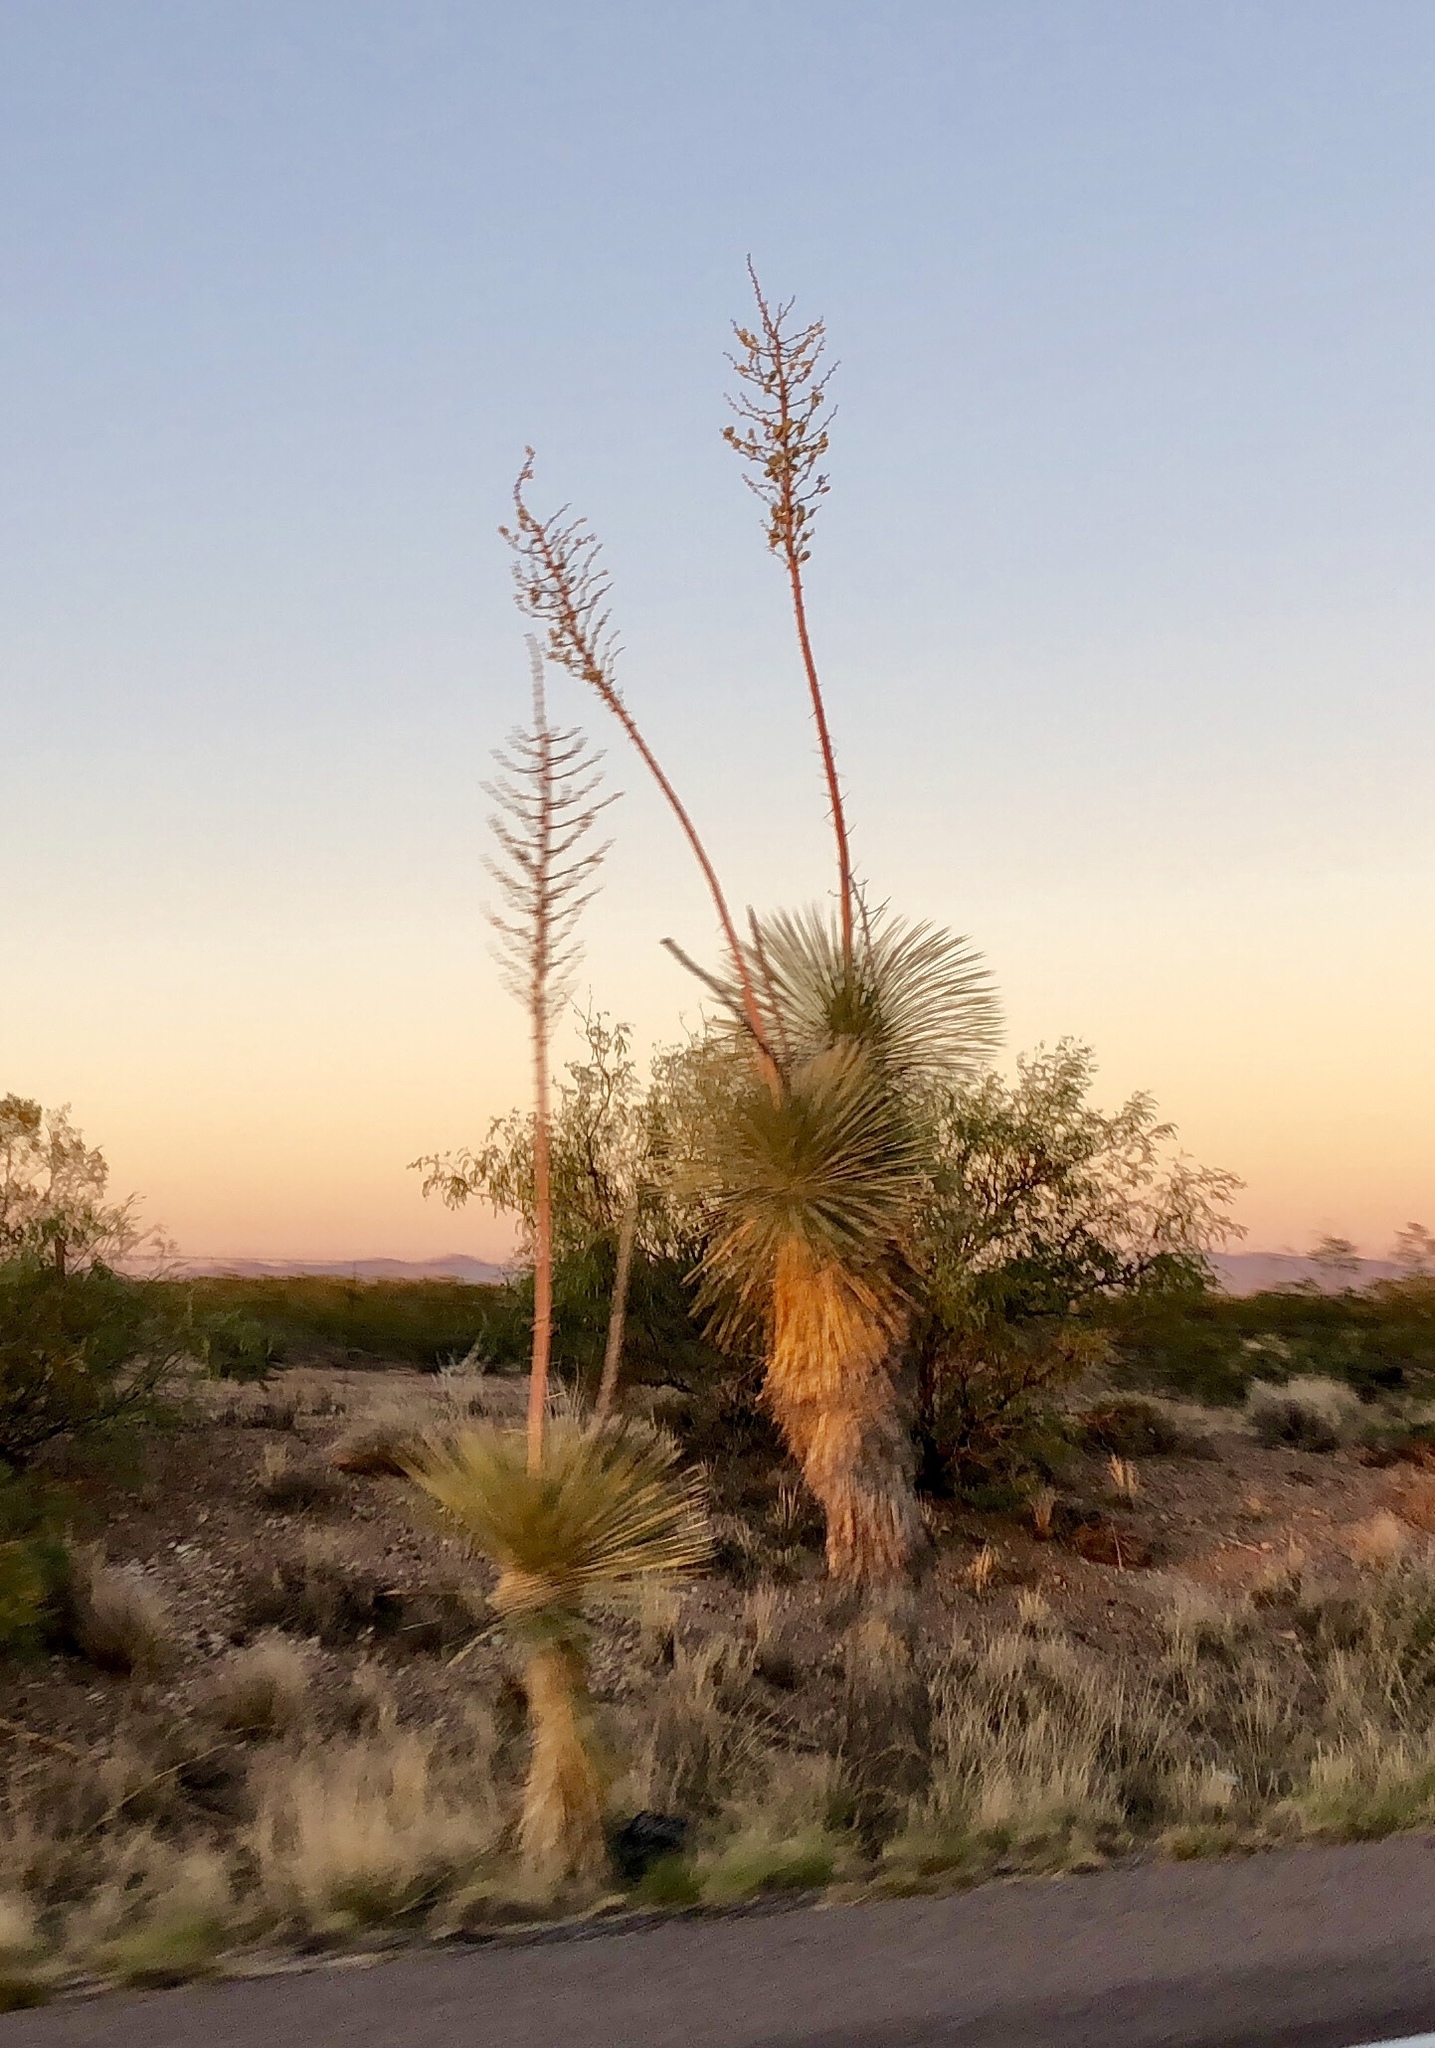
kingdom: Plantae
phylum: Tracheophyta
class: Liliopsida
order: Asparagales
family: Asparagaceae
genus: Yucca
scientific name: Yucca elata
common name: Palmella
